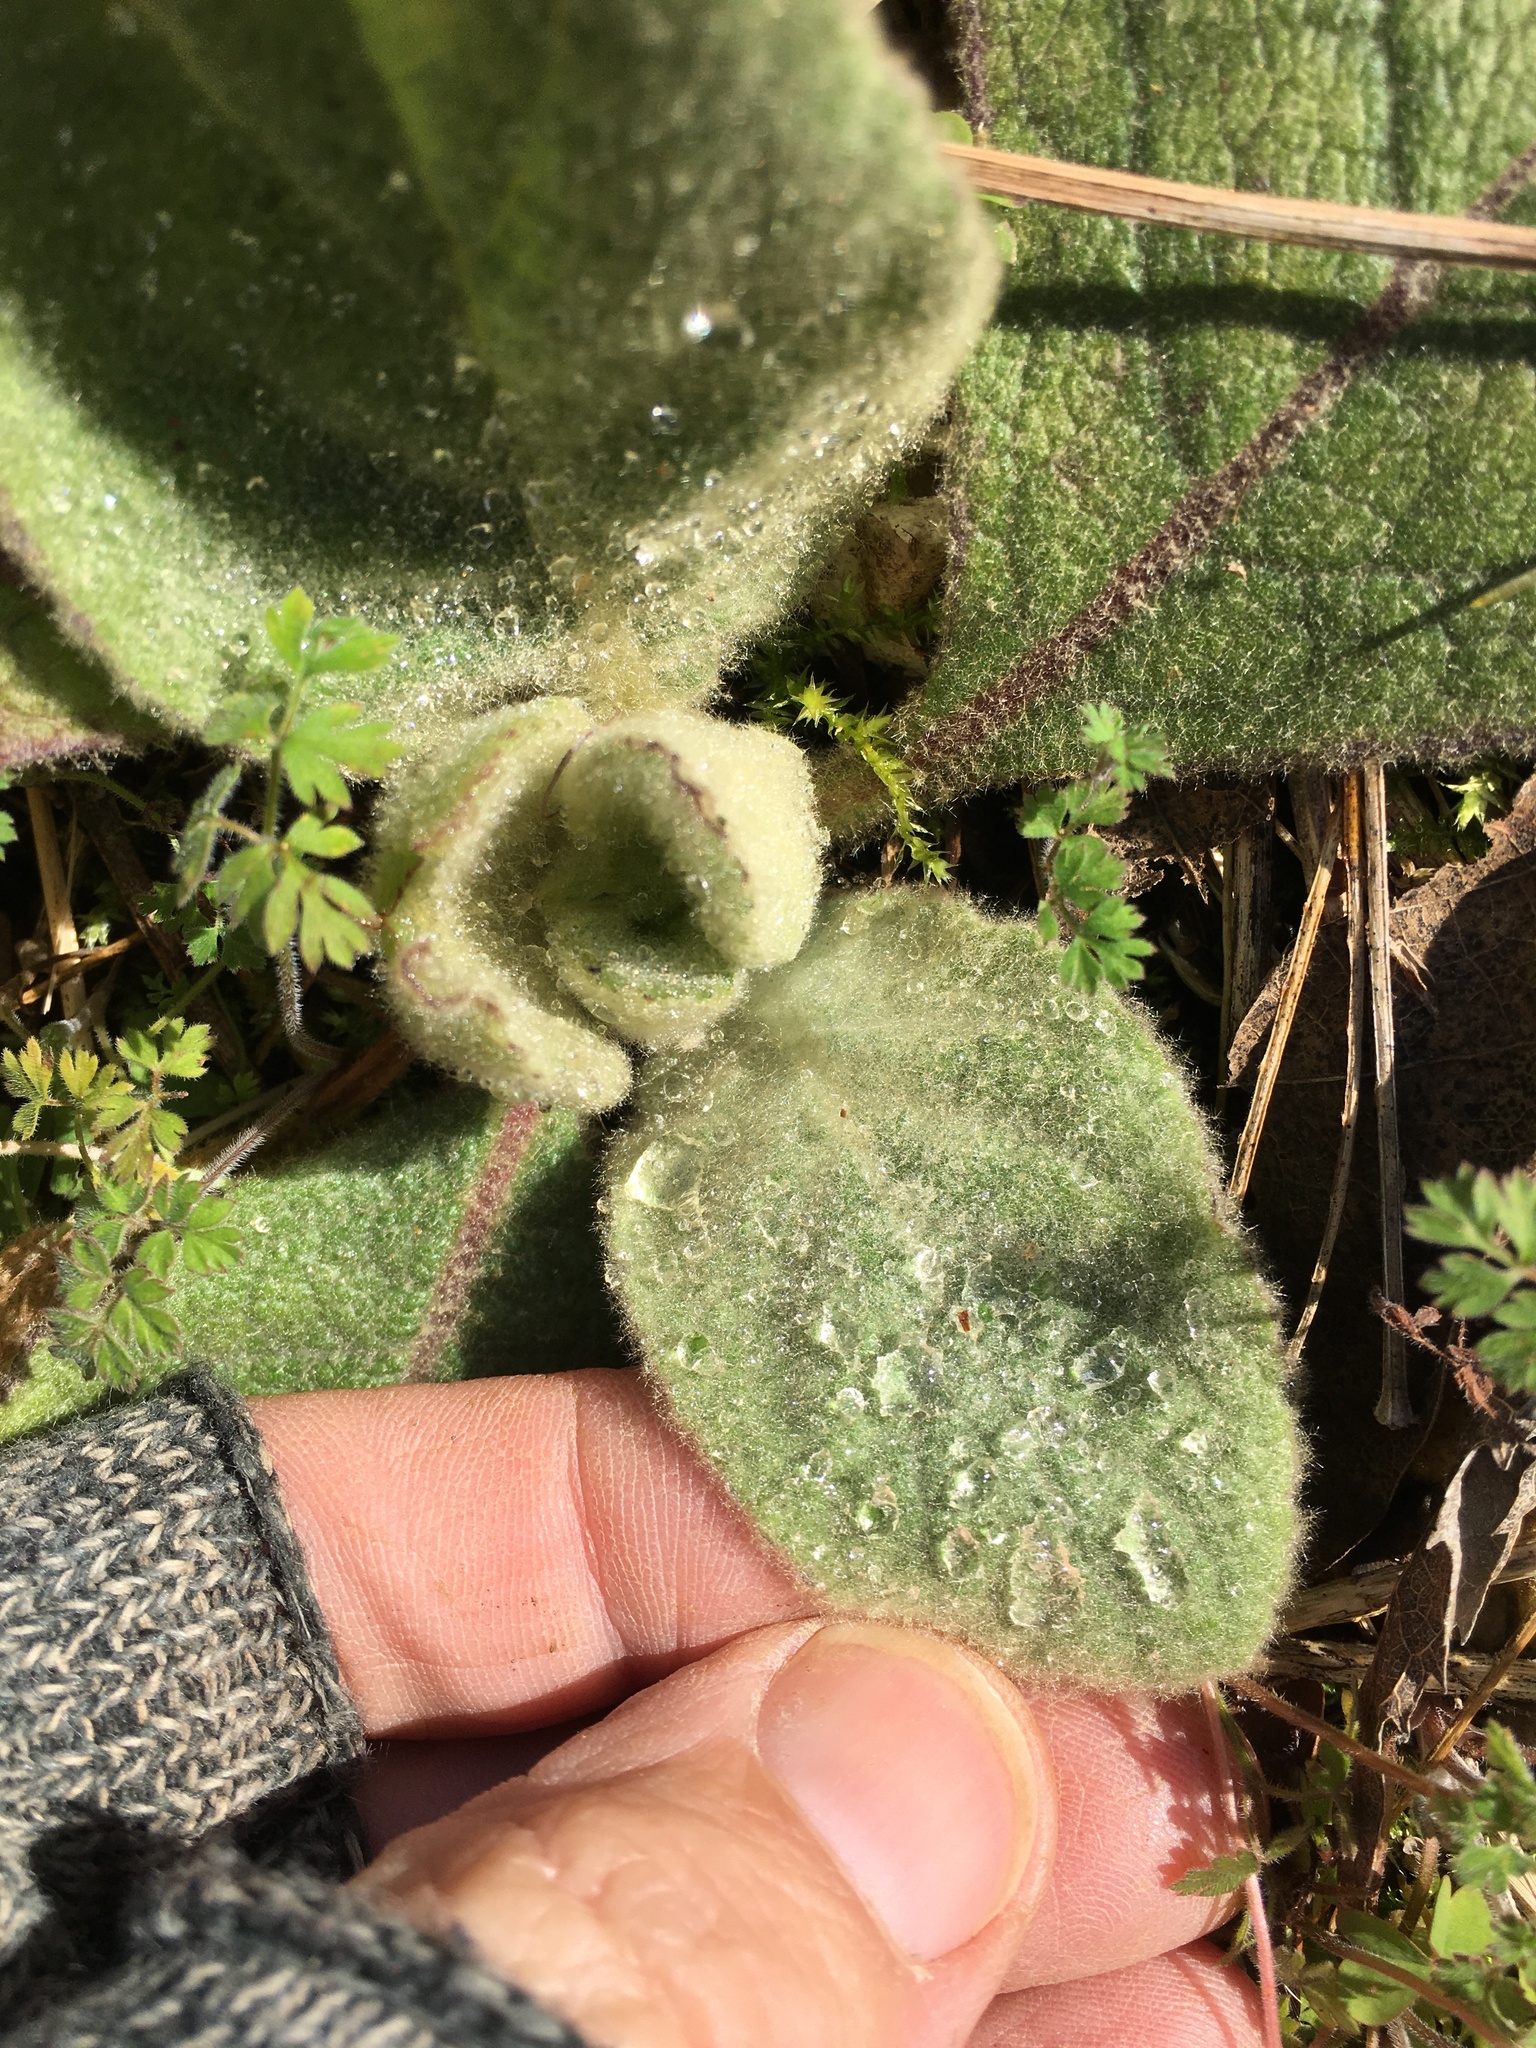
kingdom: Plantae
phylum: Tracheophyta
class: Magnoliopsida
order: Lamiales
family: Scrophulariaceae
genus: Verbascum
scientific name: Verbascum thapsus
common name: Common mullein
